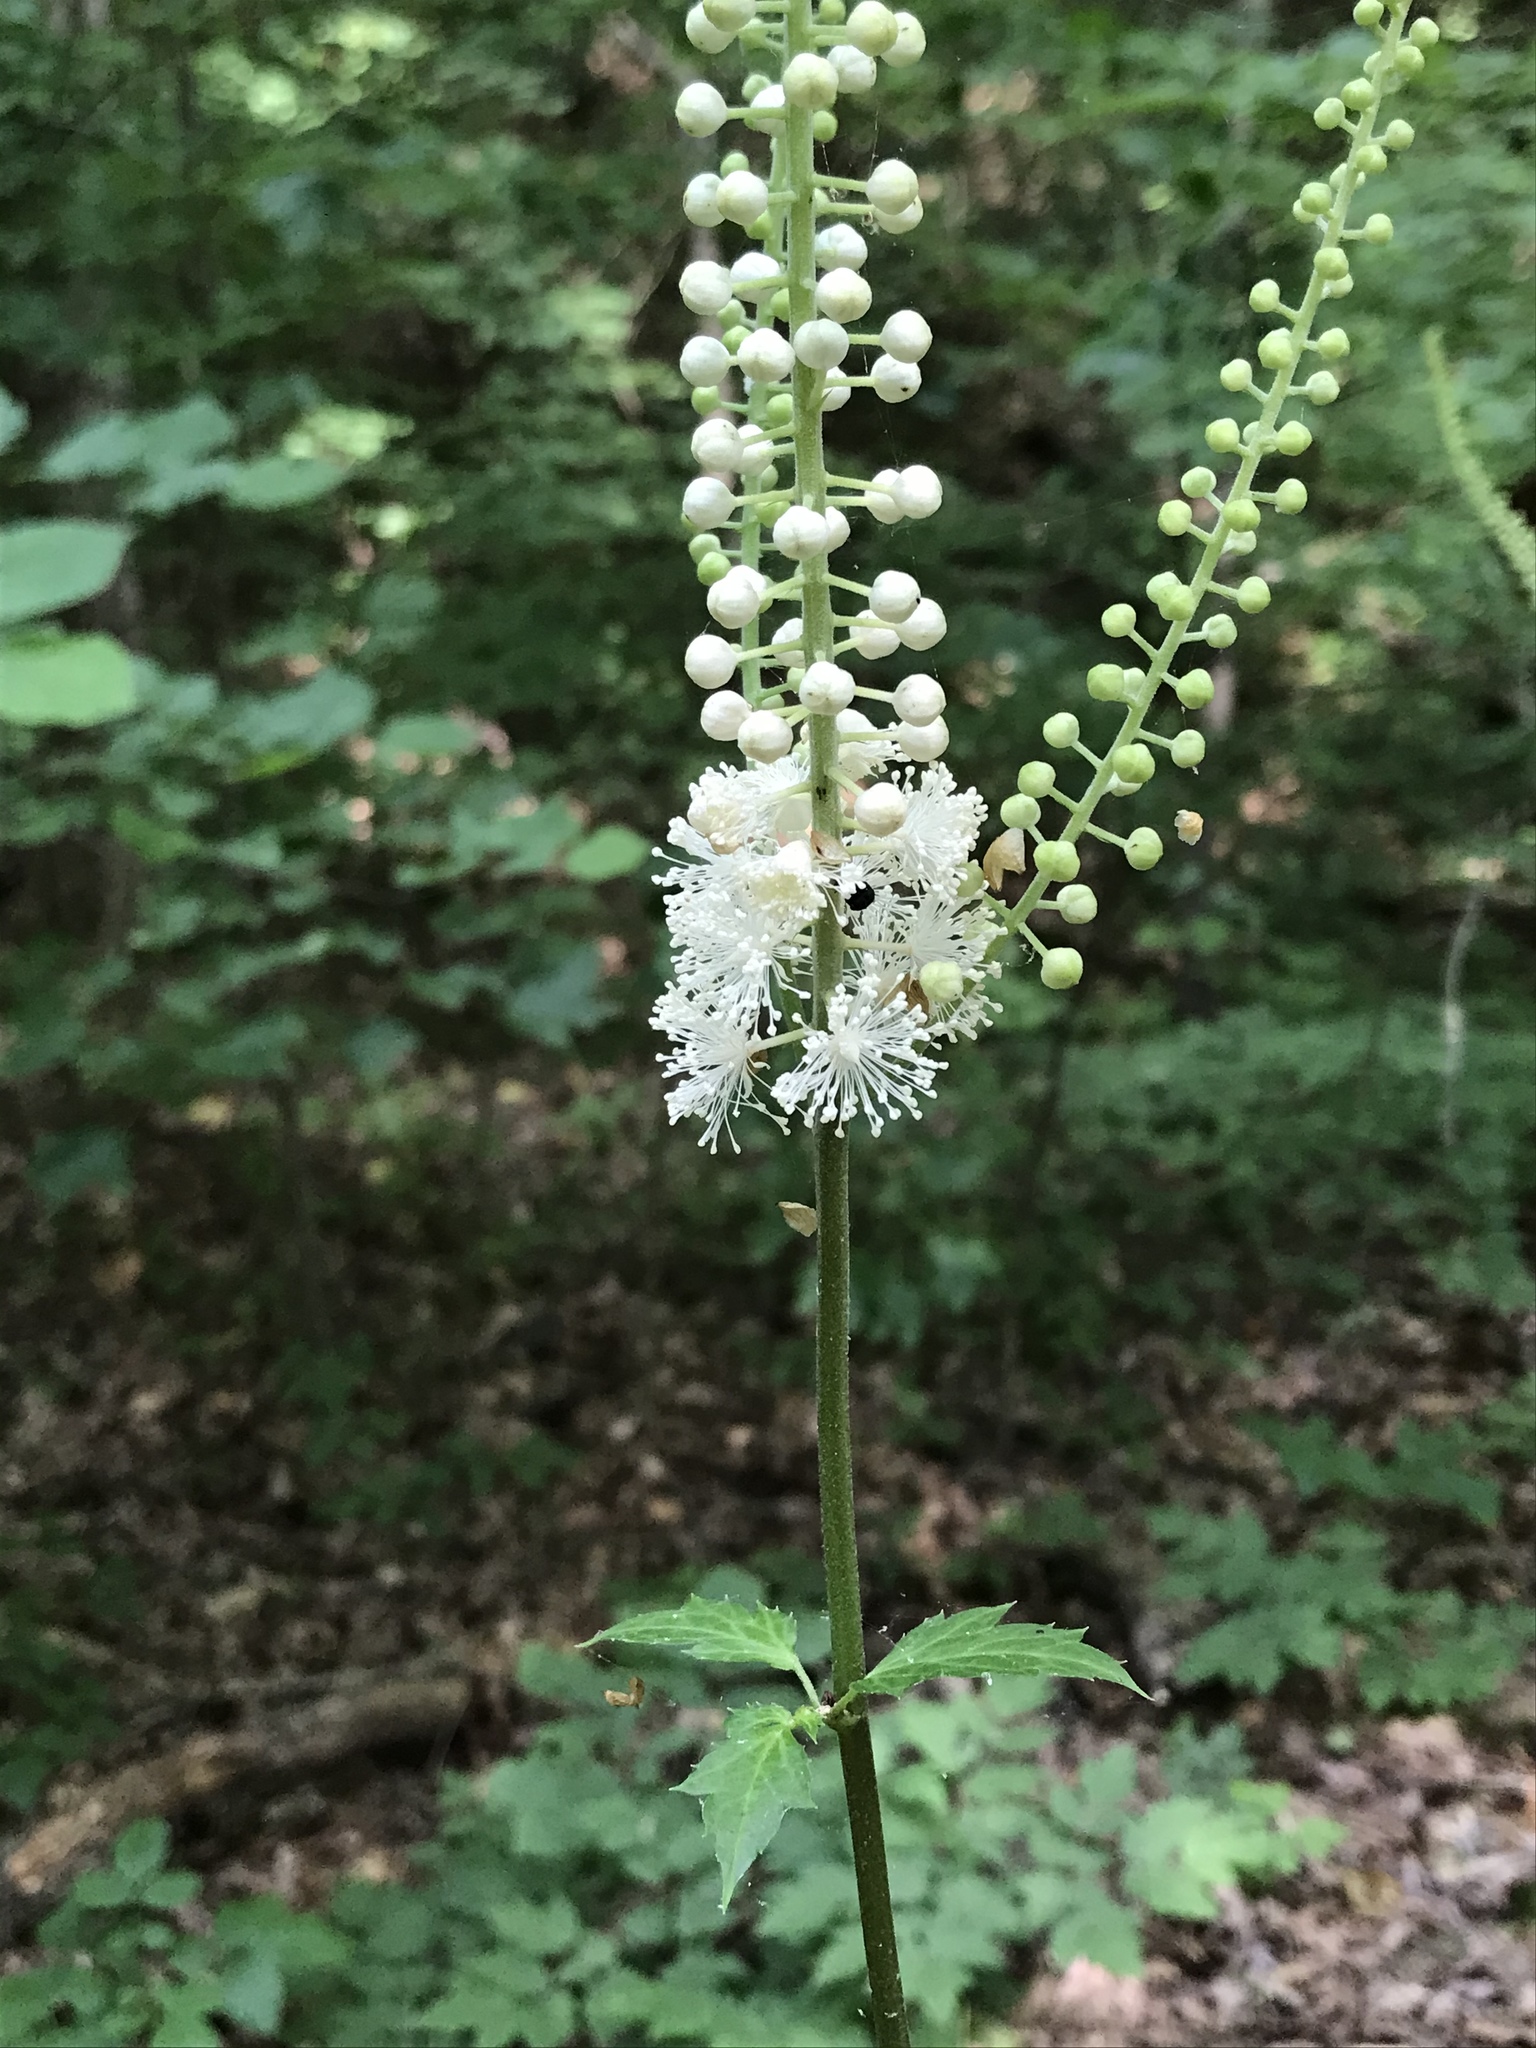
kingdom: Plantae
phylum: Tracheophyta
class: Magnoliopsida
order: Ranunculales
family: Ranunculaceae
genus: Actaea
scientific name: Actaea racemosa
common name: Black cohosh
